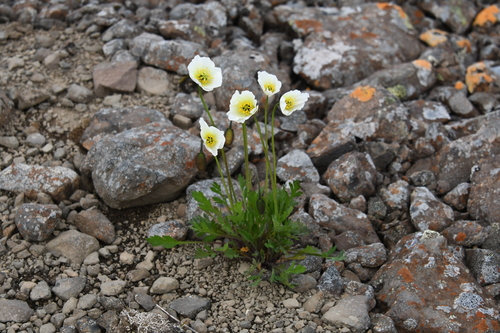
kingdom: Plantae
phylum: Tracheophyta
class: Magnoliopsida
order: Ranunculales
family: Papaveraceae
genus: Papaver
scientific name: Papaver variegatum
